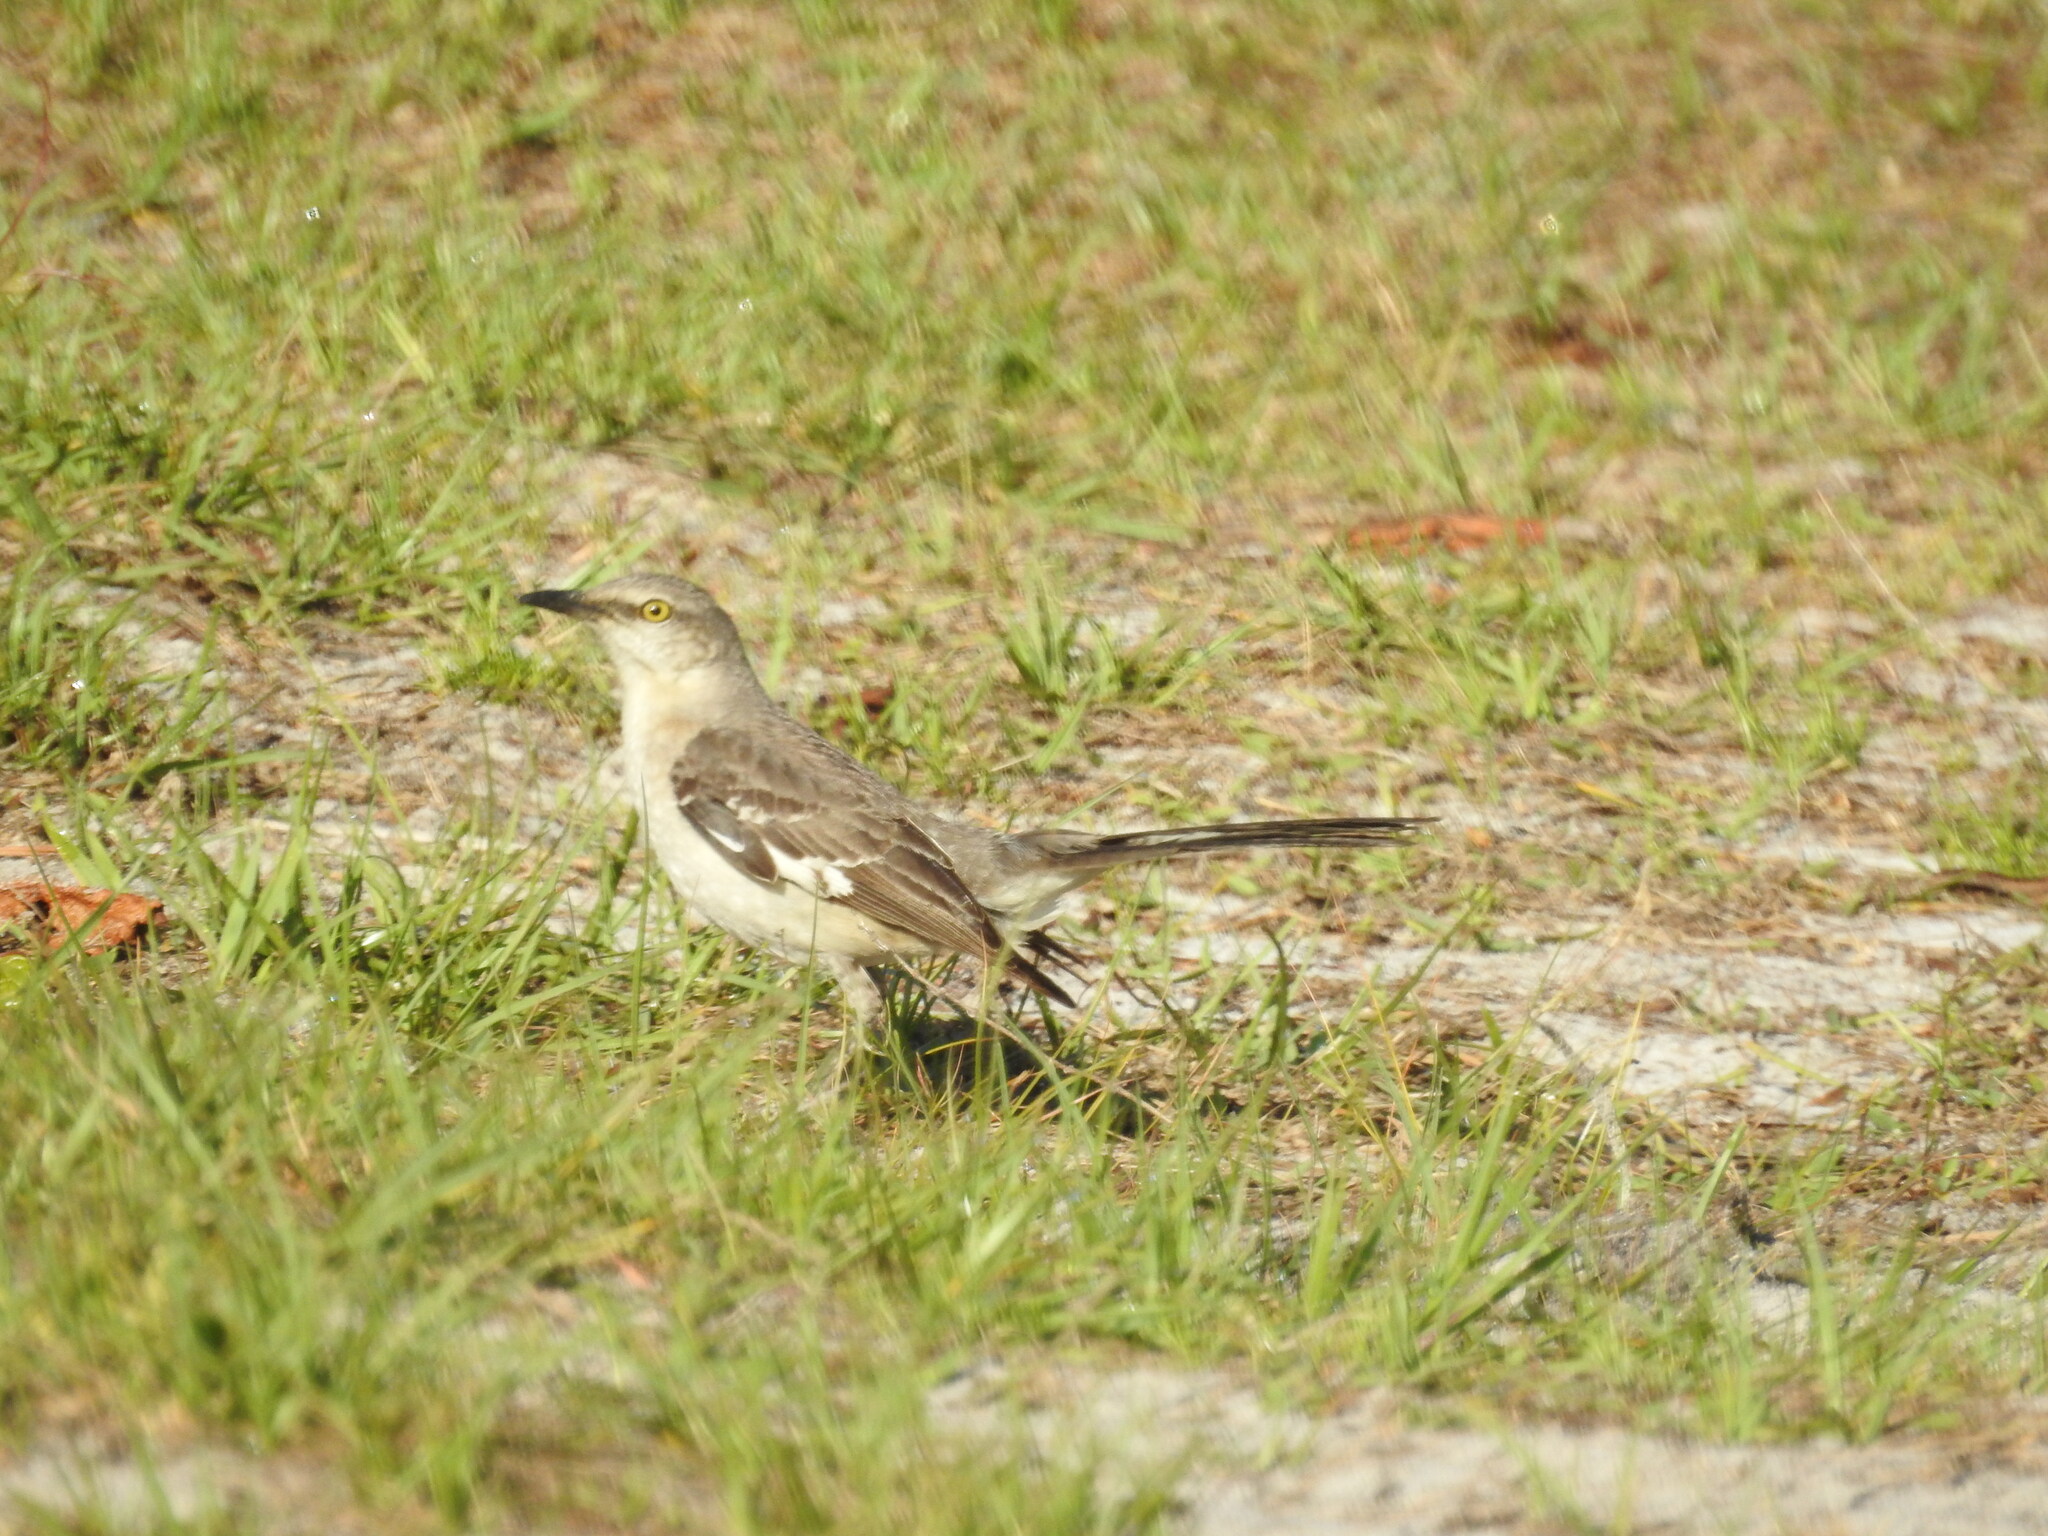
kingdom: Animalia
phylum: Chordata
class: Aves
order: Passeriformes
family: Mimidae
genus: Mimus
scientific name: Mimus polyglottos
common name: Northern mockingbird
